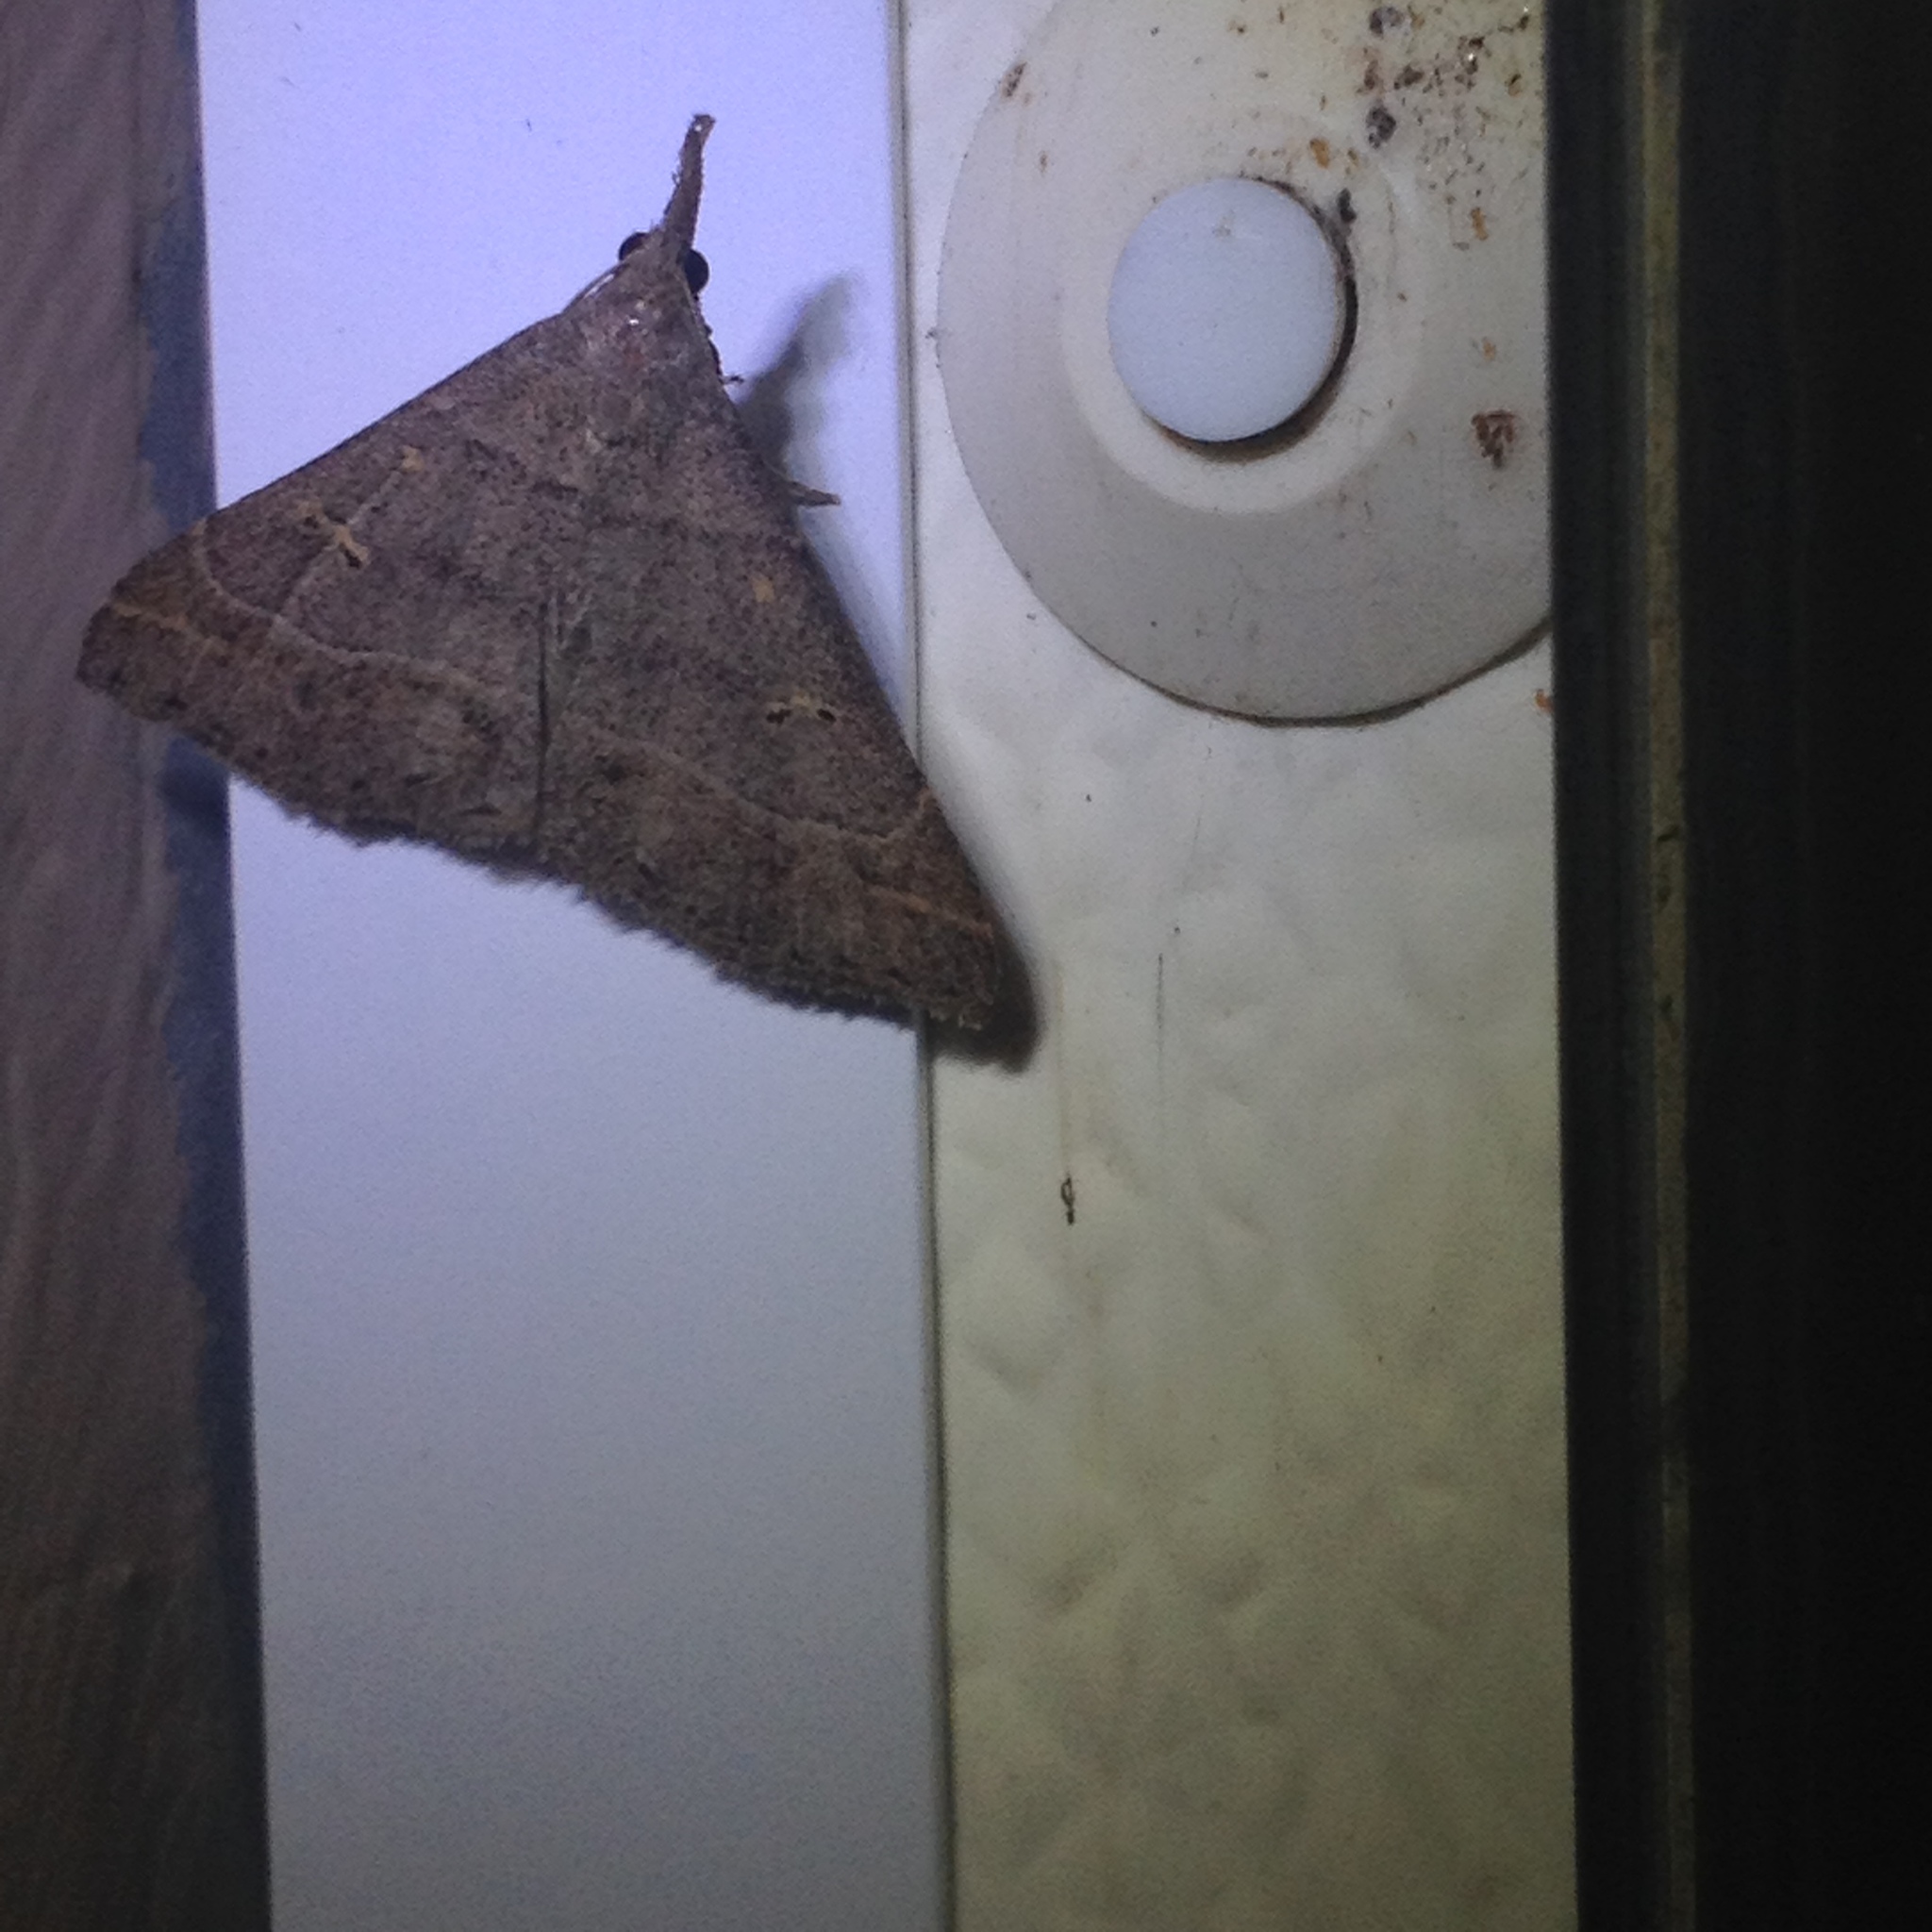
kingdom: Animalia
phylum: Arthropoda
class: Insecta
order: Lepidoptera
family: Erebidae
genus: Renia
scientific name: Renia flavipunctalis
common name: Yellow-spotted renia moth
